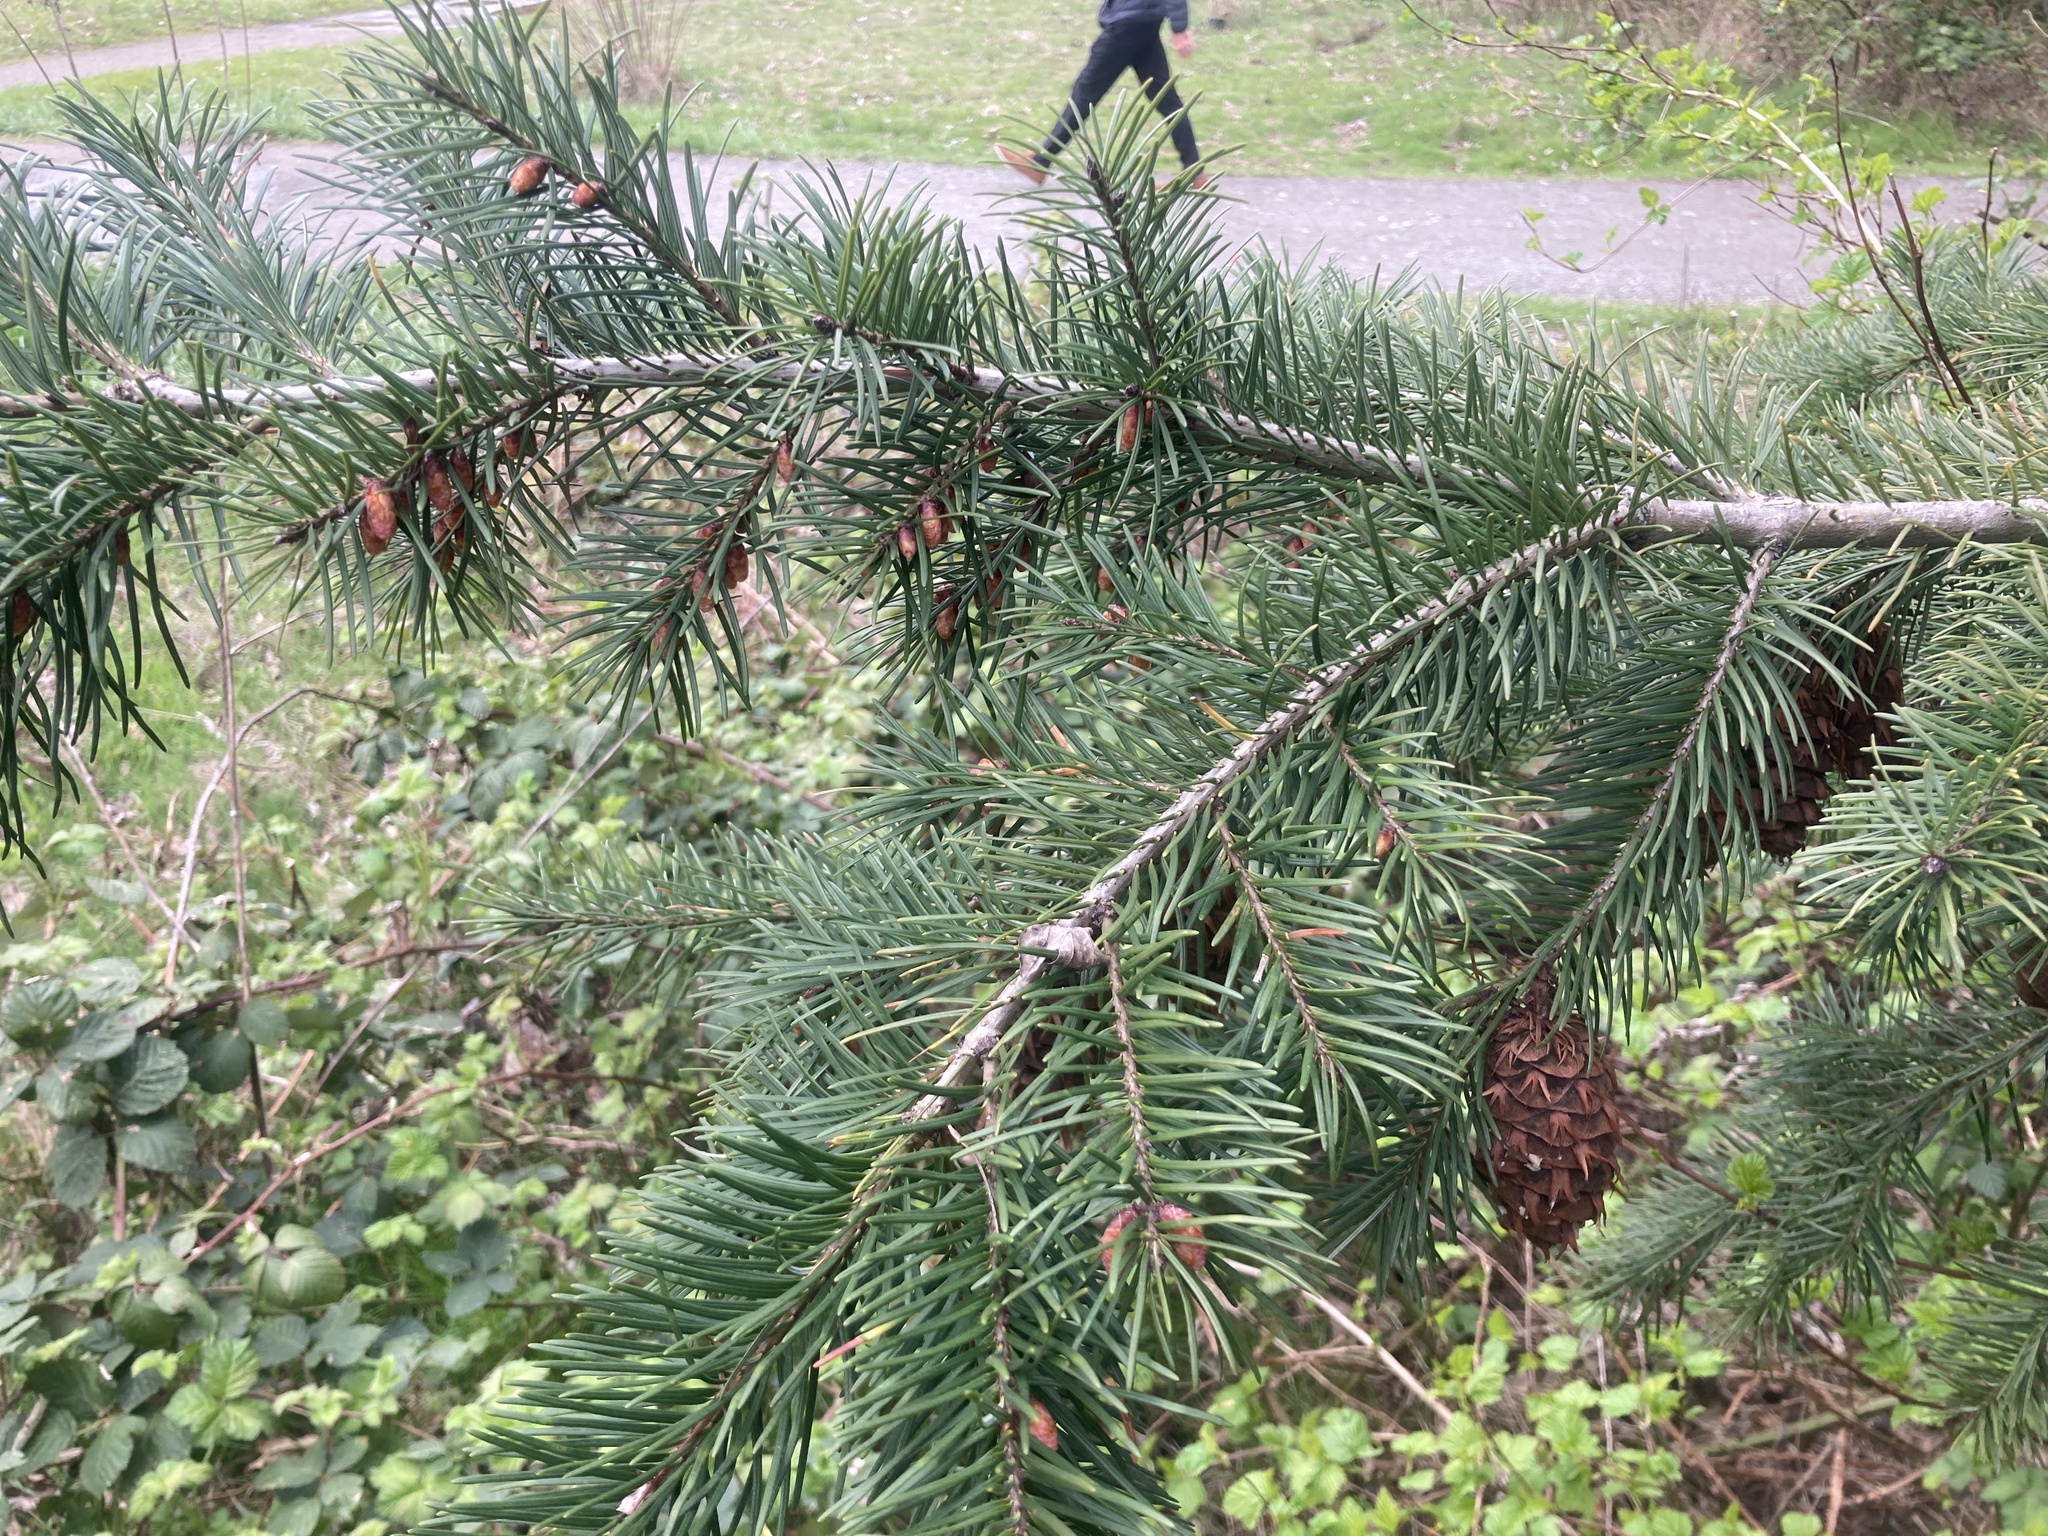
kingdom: Plantae
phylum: Tracheophyta
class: Pinopsida
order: Pinales
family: Pinaceae
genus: Pseudotsuga
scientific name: Pseudotsuga menziesii
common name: Douglas fir
